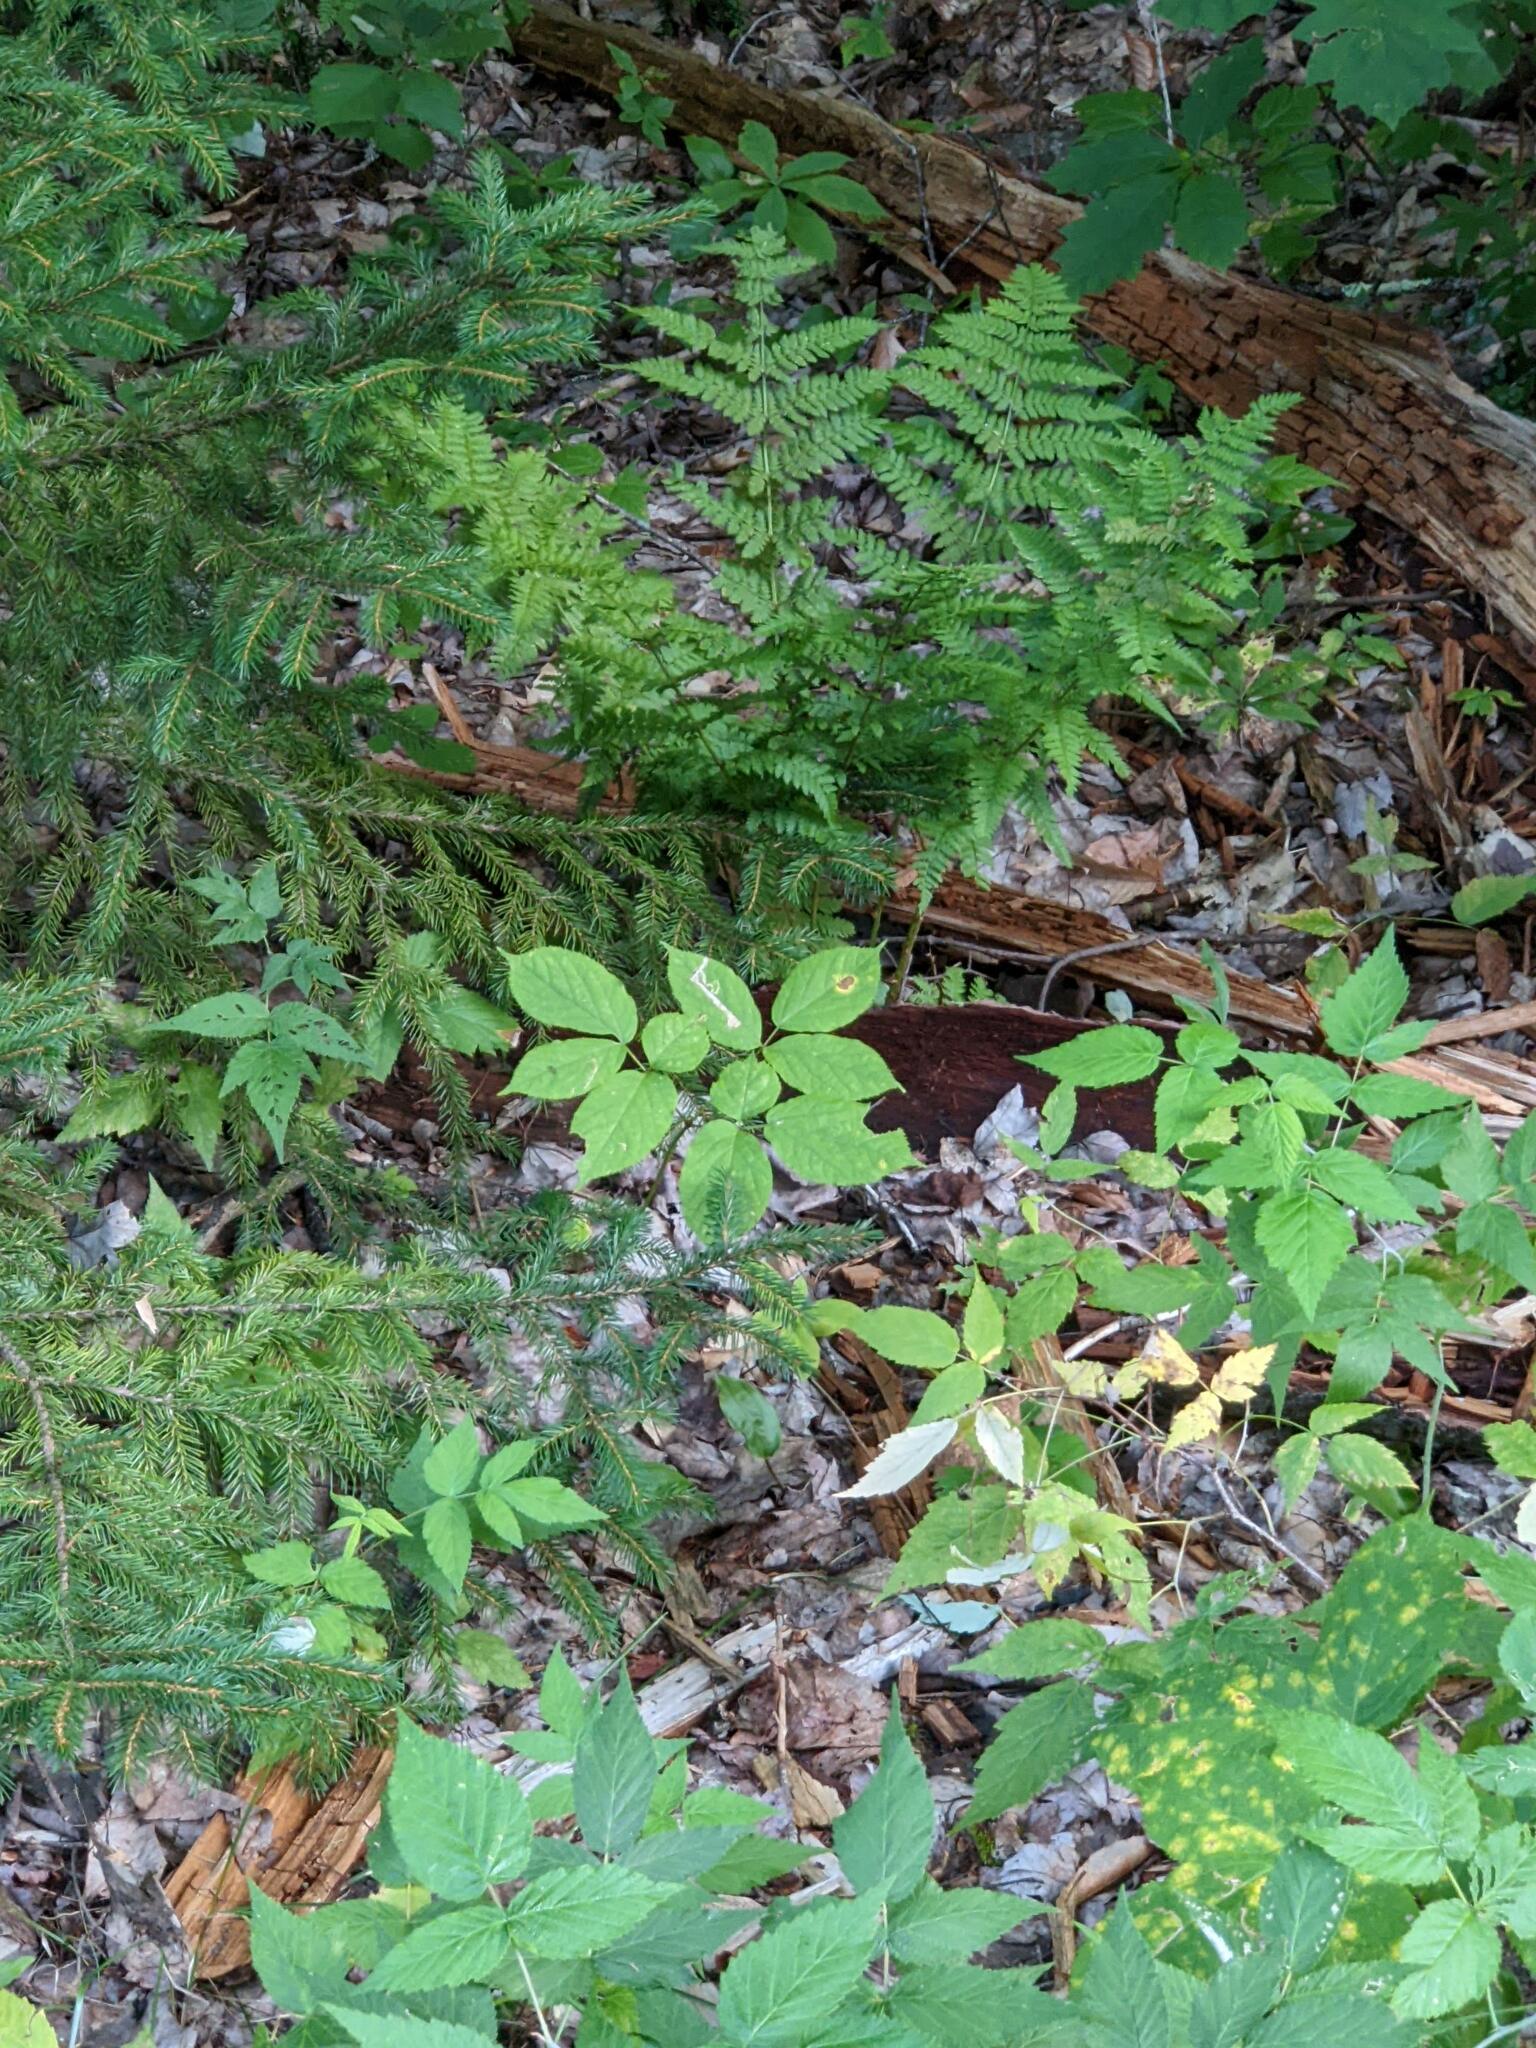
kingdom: Plantae
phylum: Tracheophyta
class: Magnoliopsida
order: Apiales
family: Araliaceae
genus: Aralia
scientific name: Aralia nudicaulis
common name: Wild sarsaparilla
